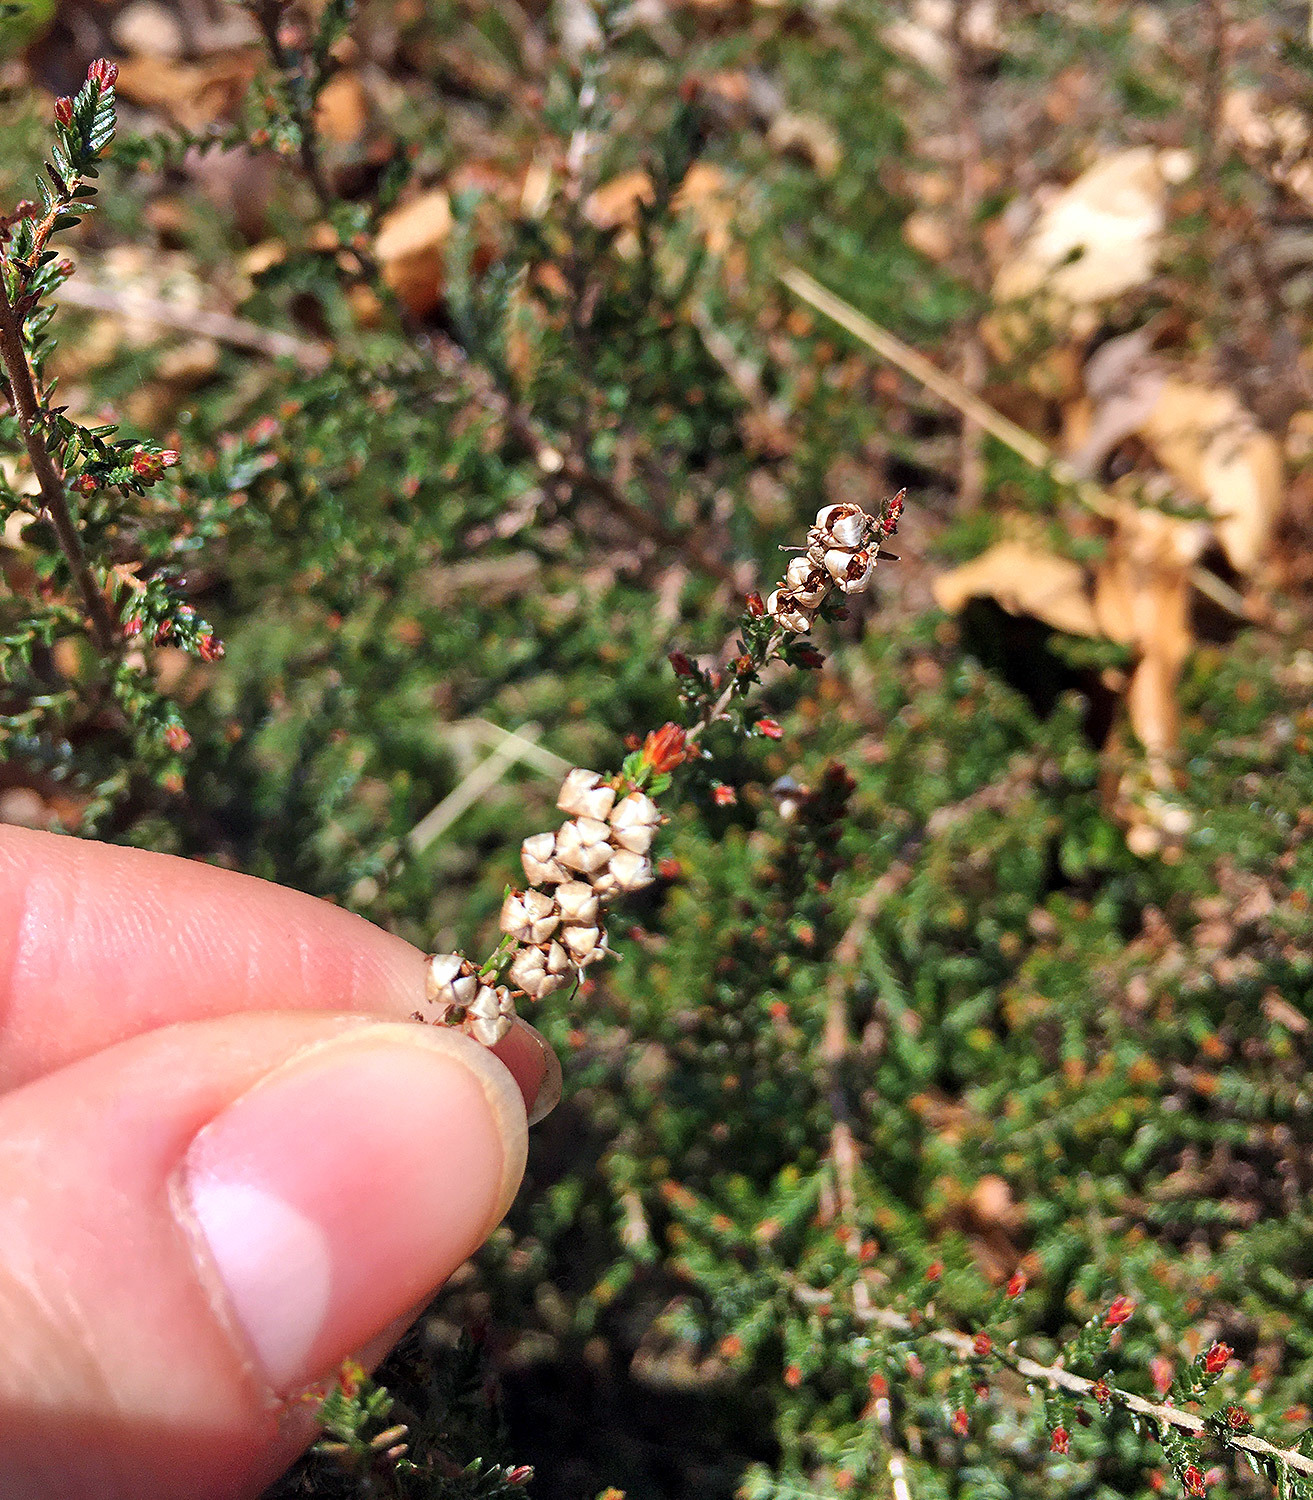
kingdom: Plantae
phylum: Tracheophyta
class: Magnoliopsida
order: Ericales
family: Ericaceae
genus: Calluna
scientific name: Calluna vulgaris
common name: Heather
